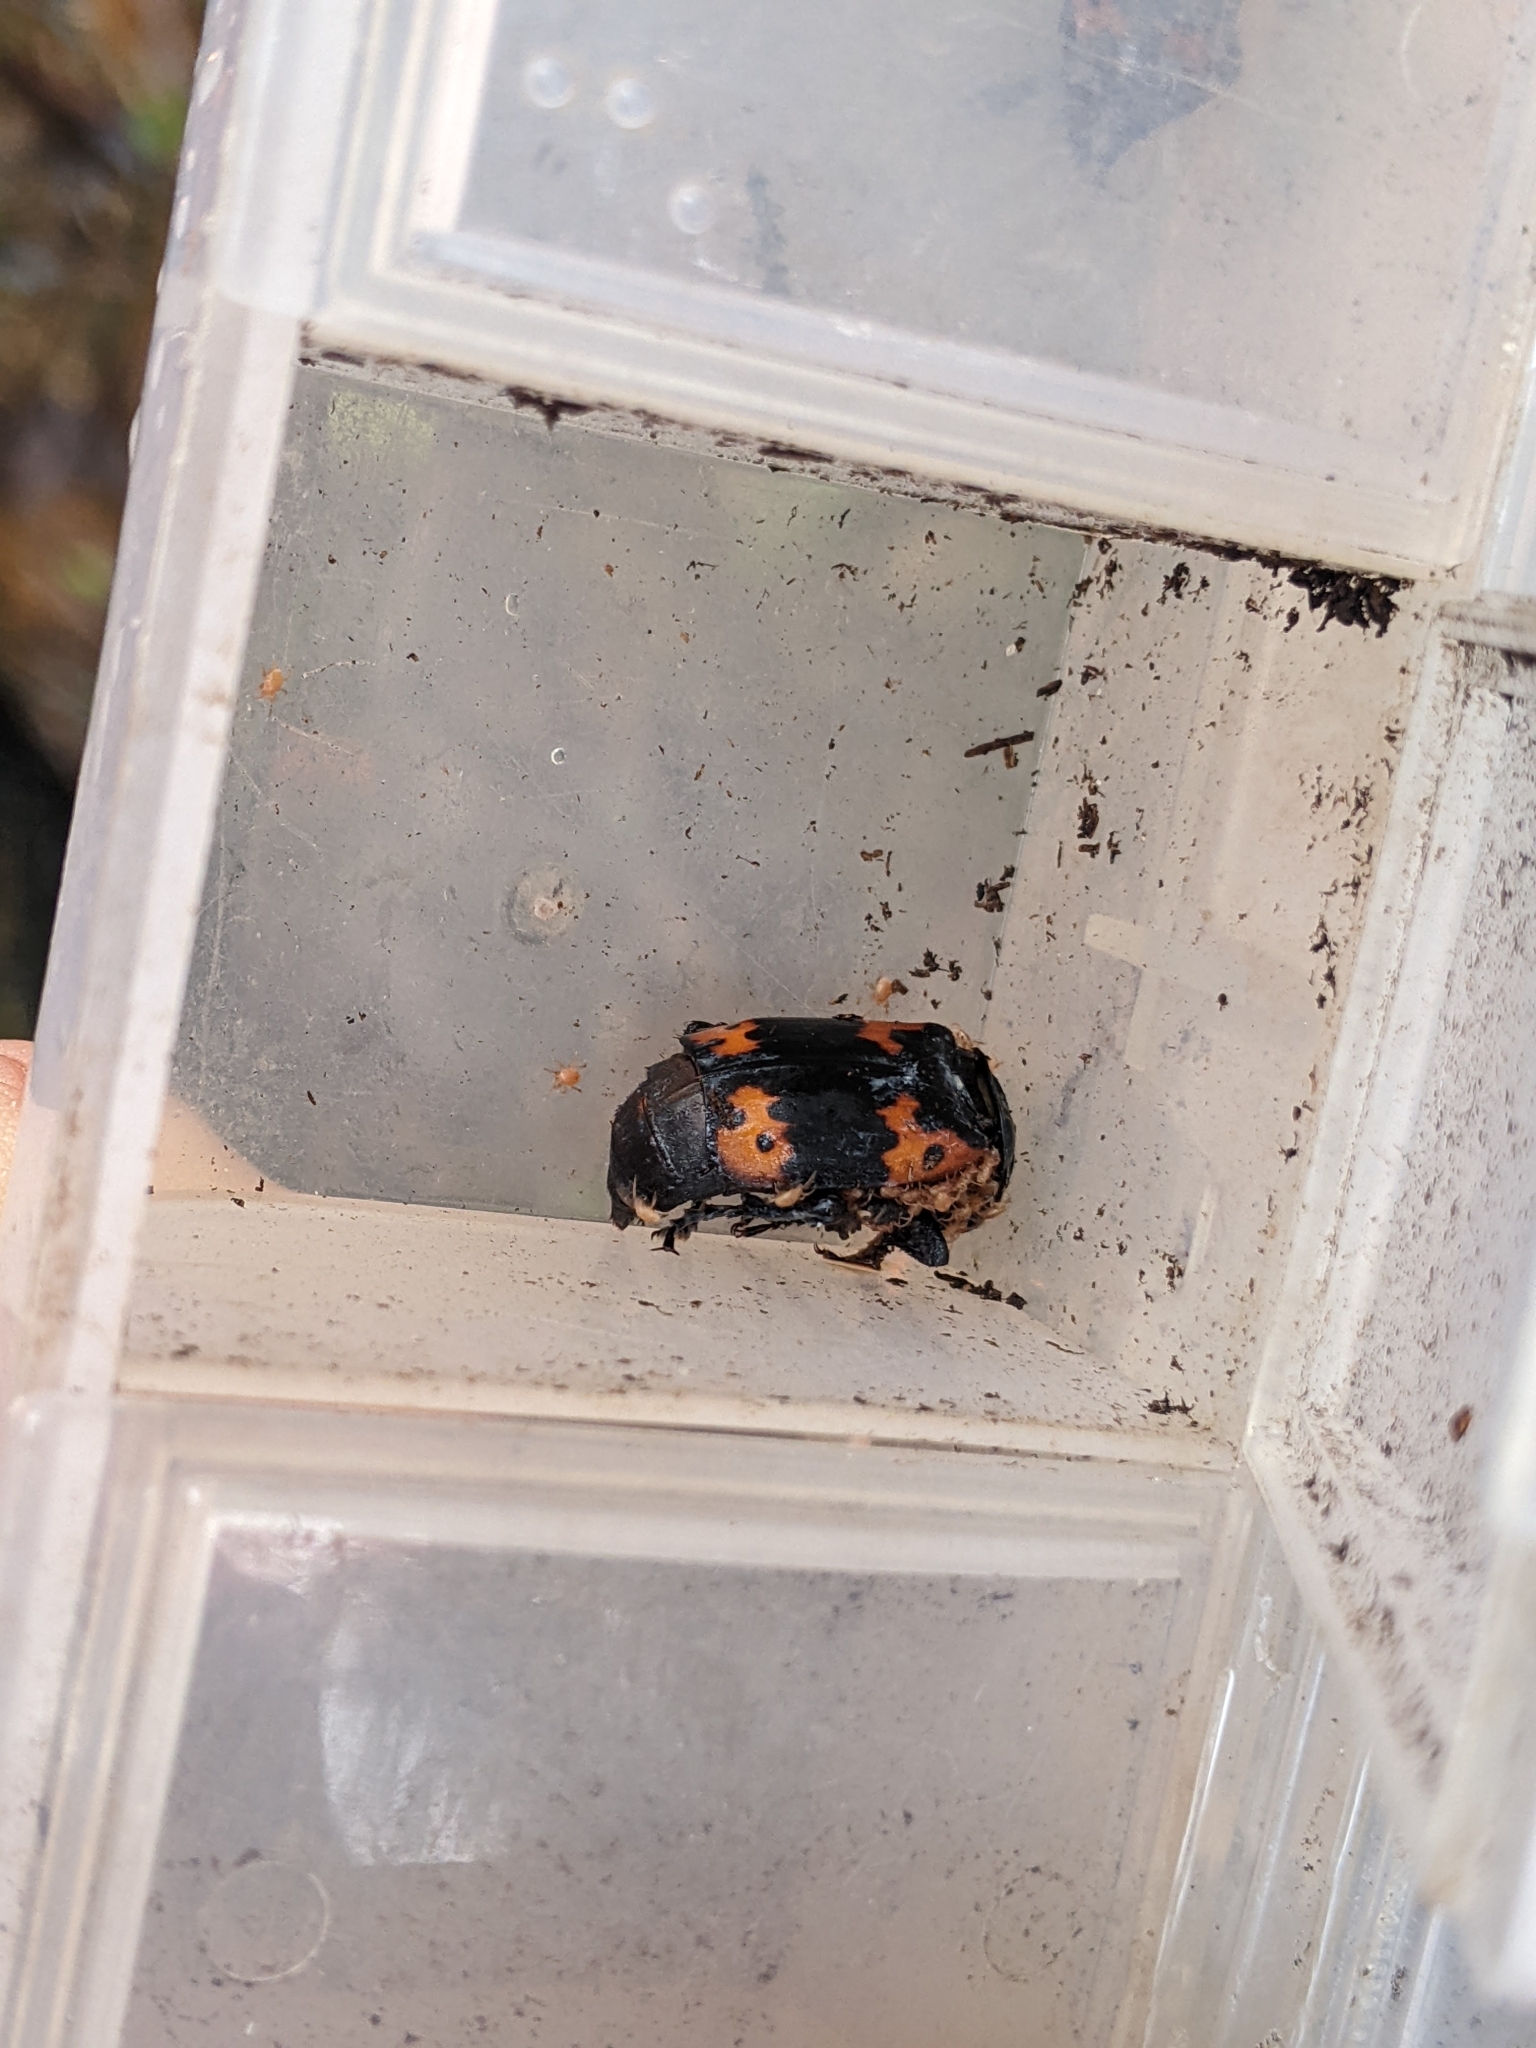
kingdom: Animalia
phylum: Arthropoda
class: Insecta
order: Coleoptera
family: Staphylinidae
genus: Nicrophorus
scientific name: Nicrophorus nepalensis
